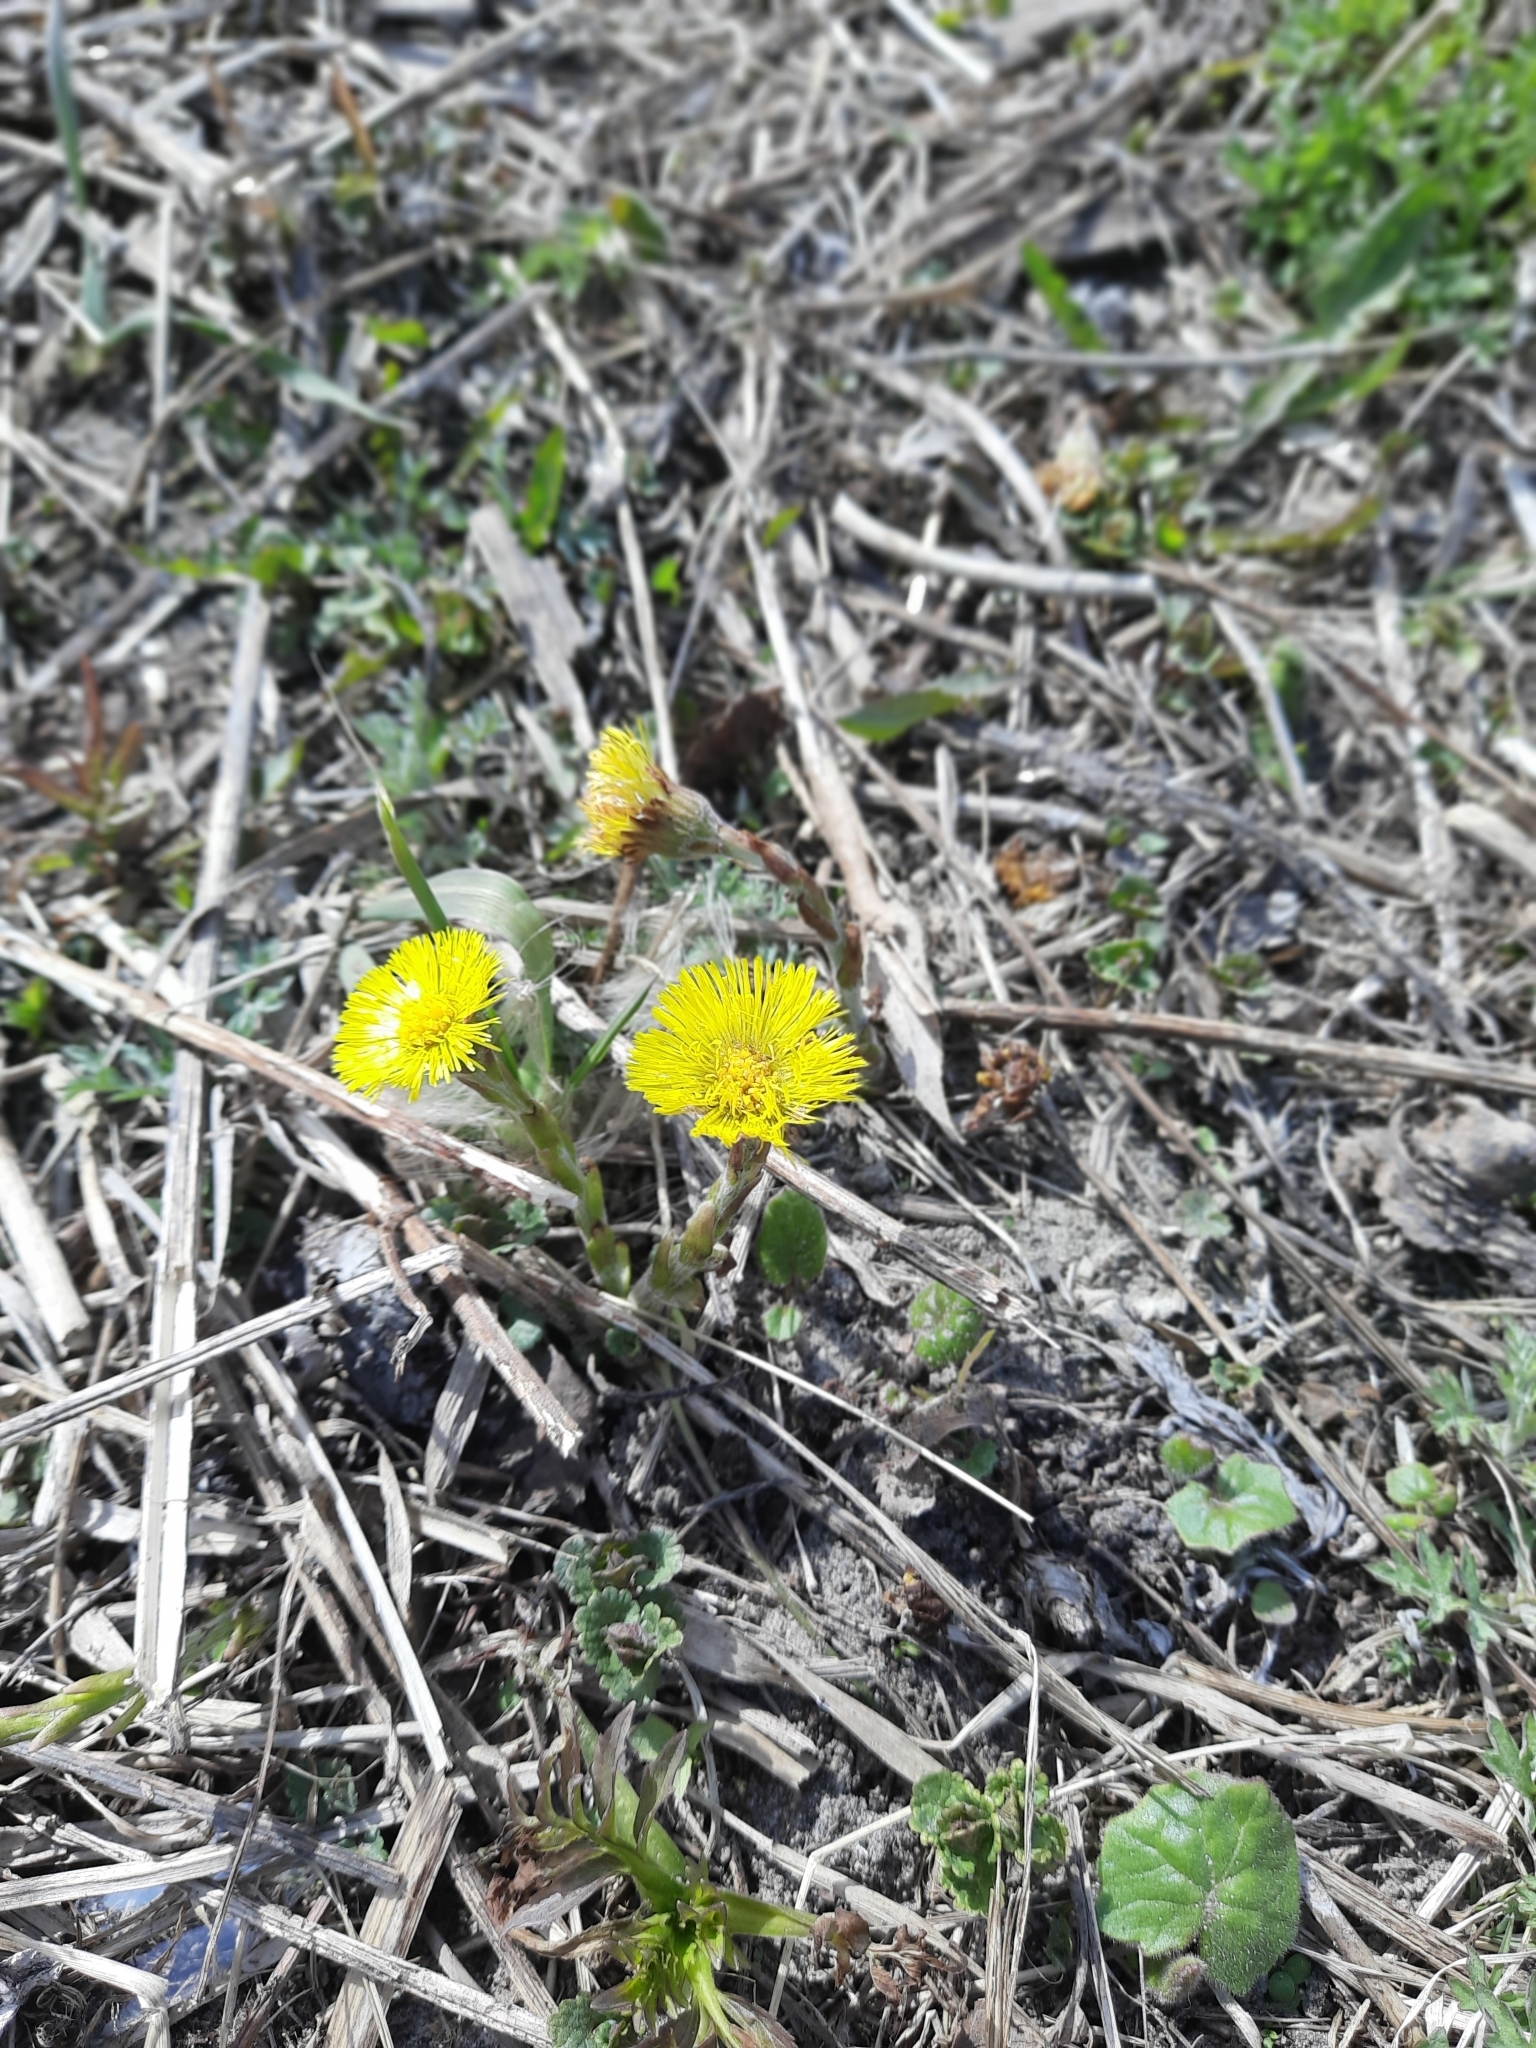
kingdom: Plantae
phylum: Tracheophyta
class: Magnoliopsida
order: Asterales
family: Asteraceae
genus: Tussilago
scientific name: Tussilago farfara
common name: Coltsfoot
